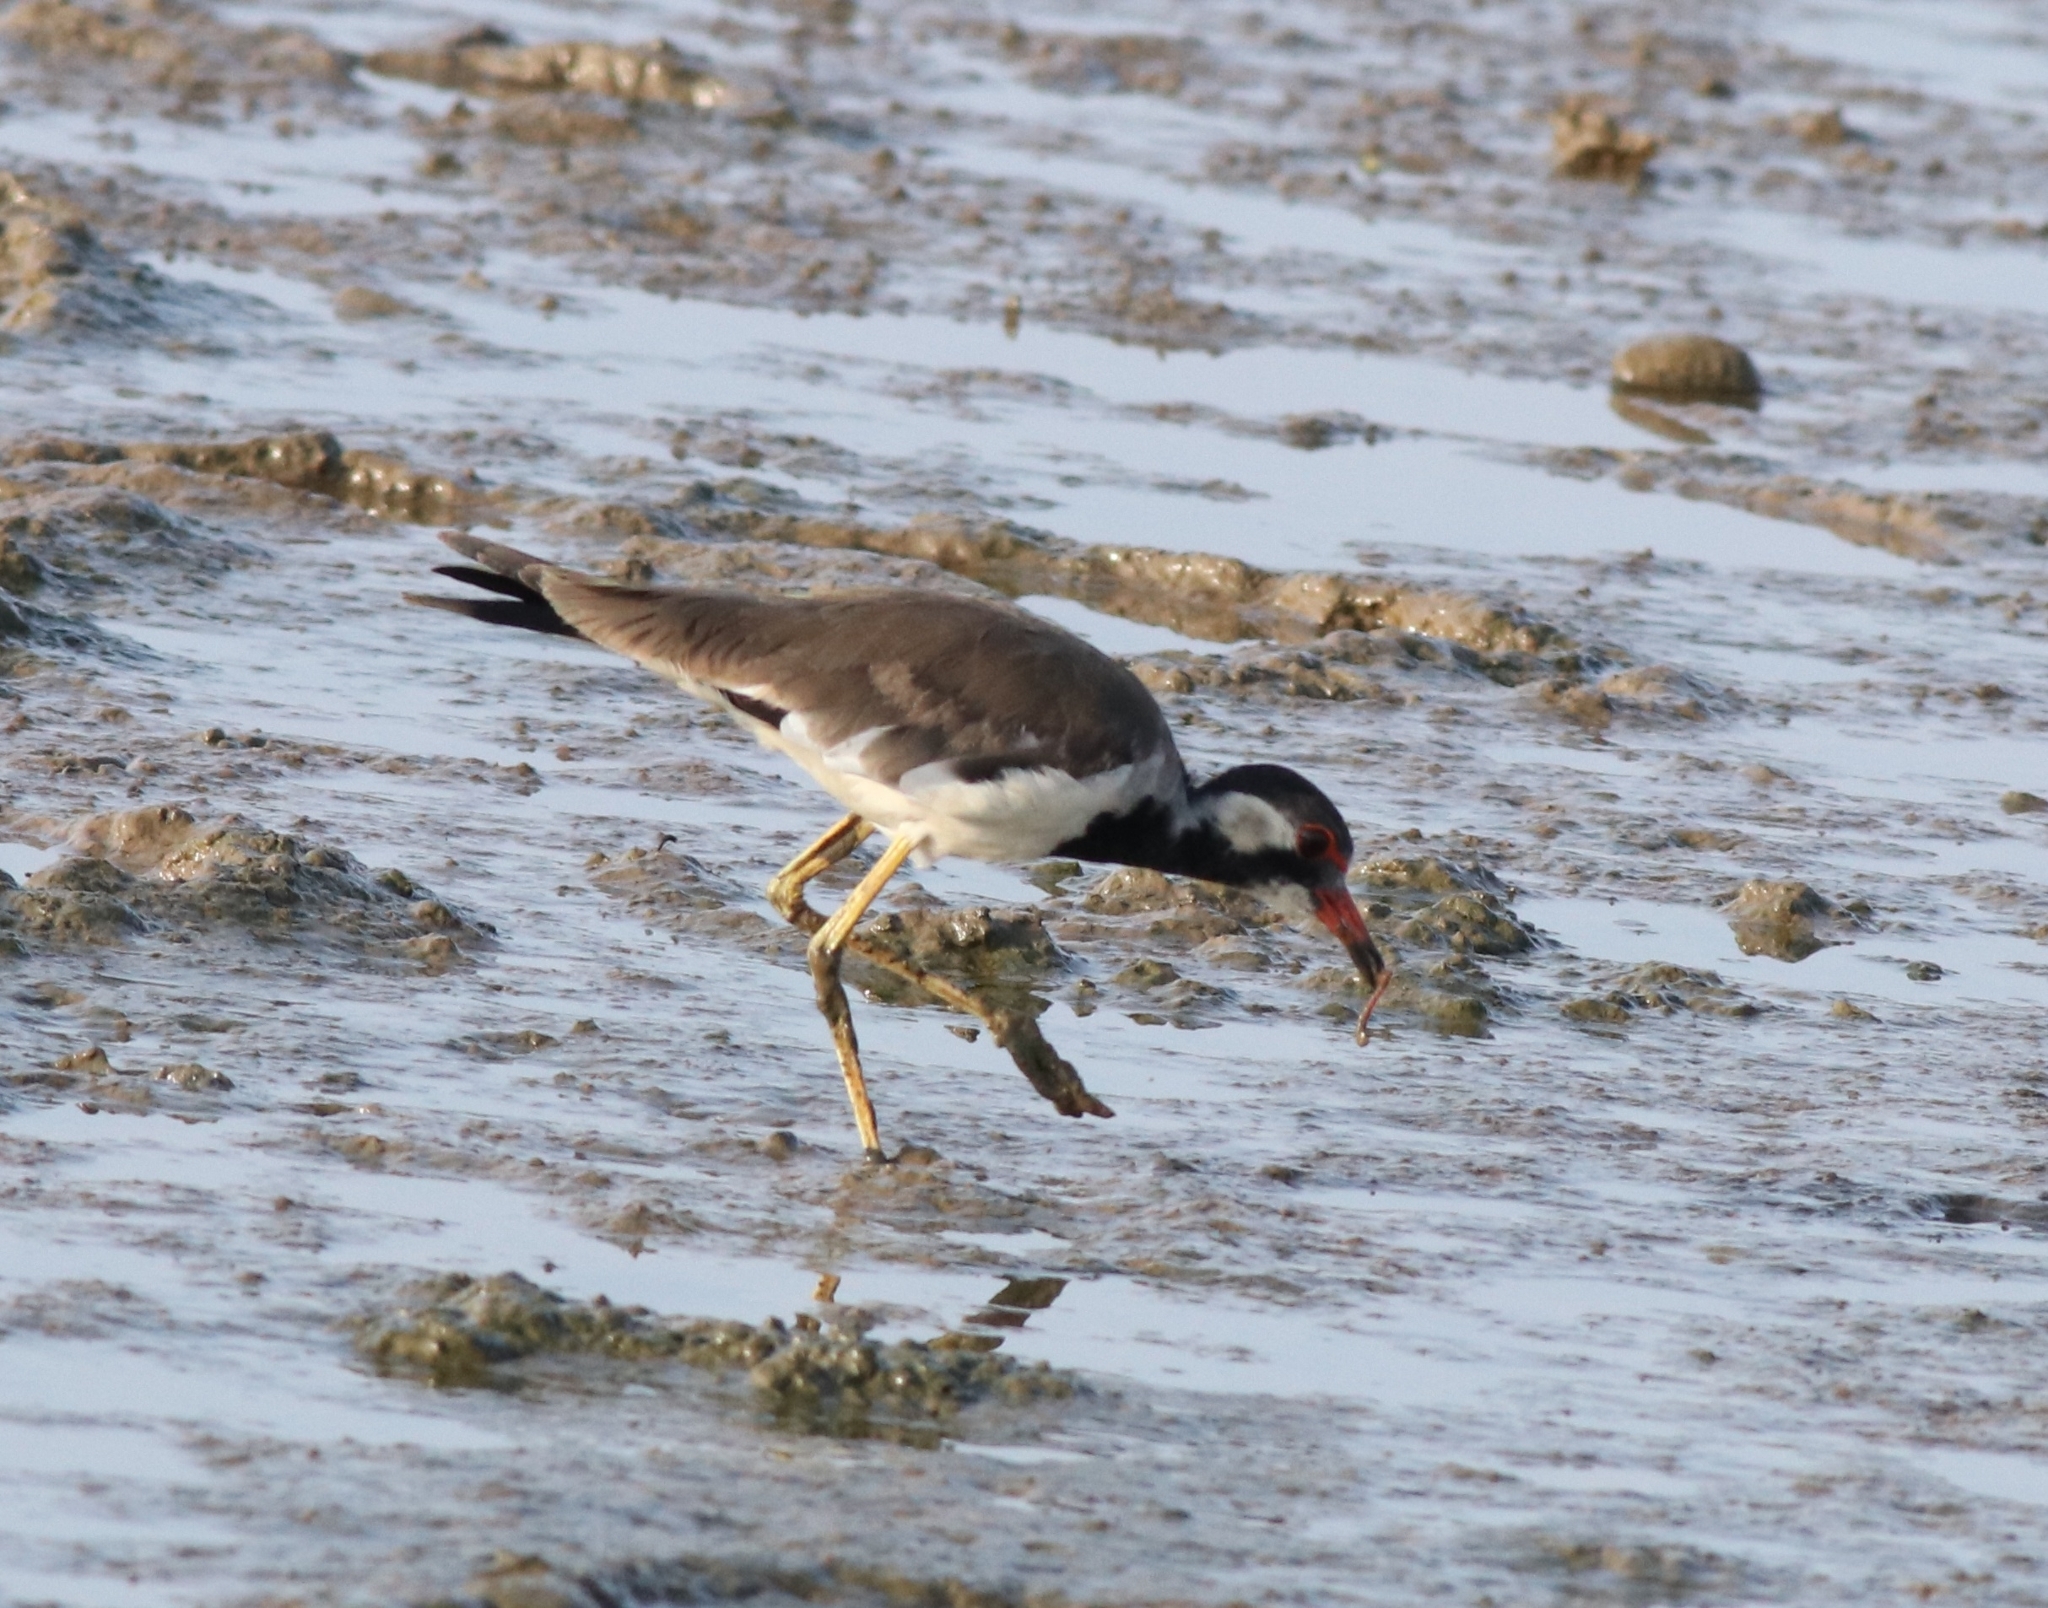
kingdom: Animalia
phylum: Chordata
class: Aves
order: Charadriiformes
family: Charadriidae
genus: Vanellus
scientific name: Vanellus indicus
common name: Red-wattled lapwing
